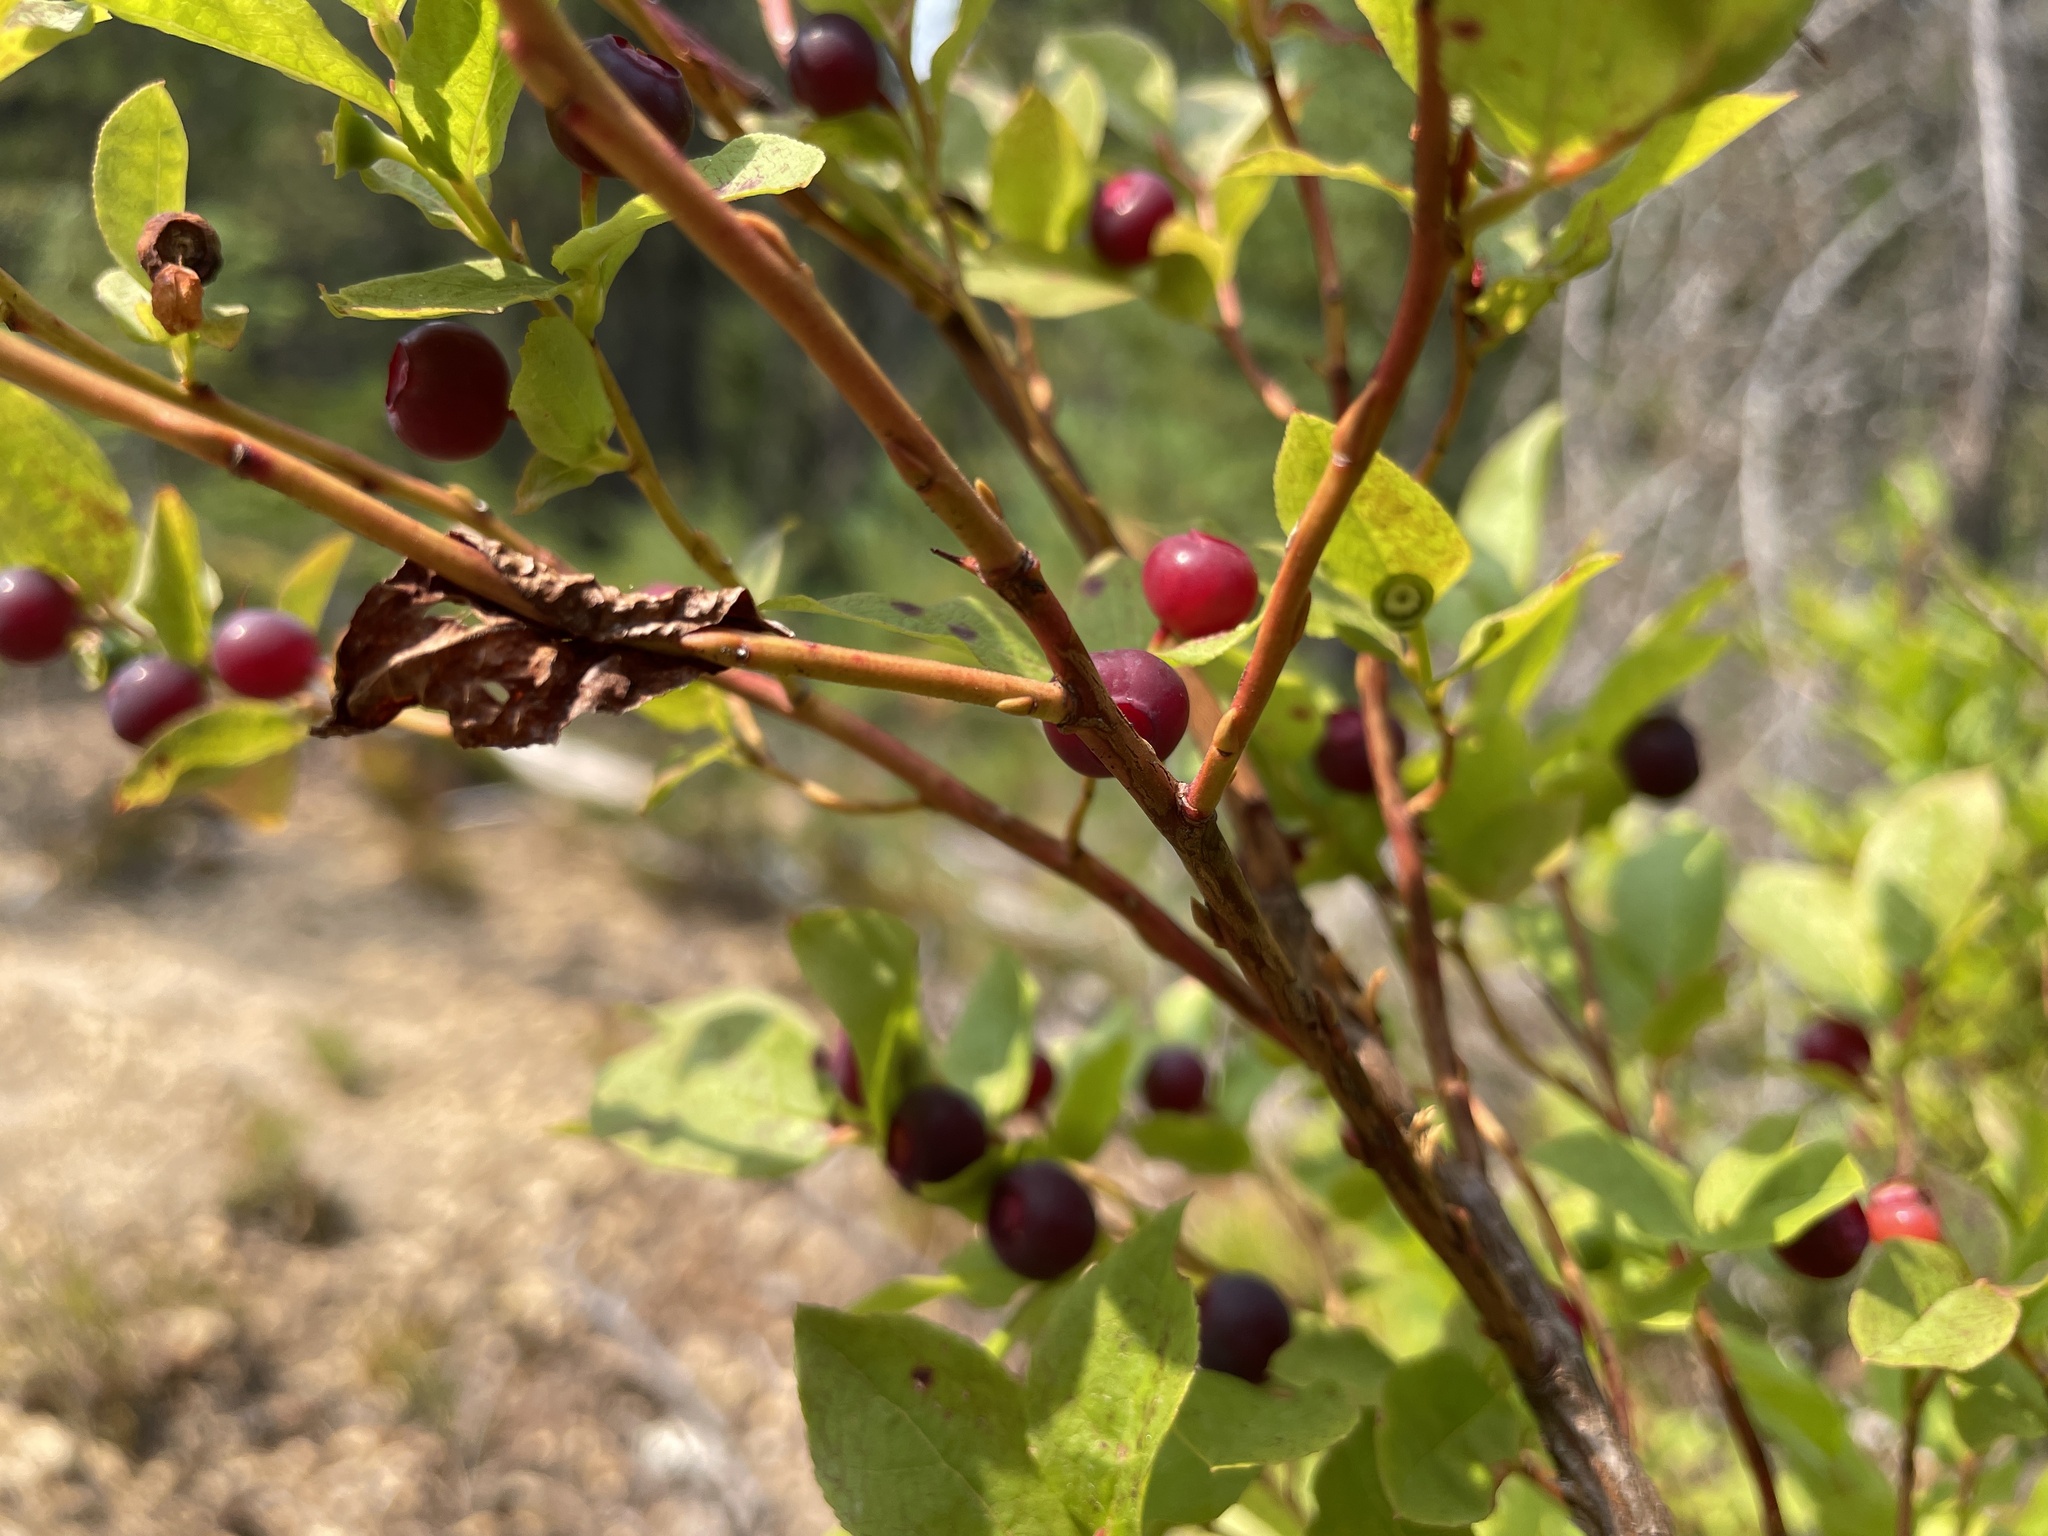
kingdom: Plantae
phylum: Tracheophyta
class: Magnoliopsida
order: Ericales
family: Ericaceae
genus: Vaccinium
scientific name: Vaccinium membranaceum
